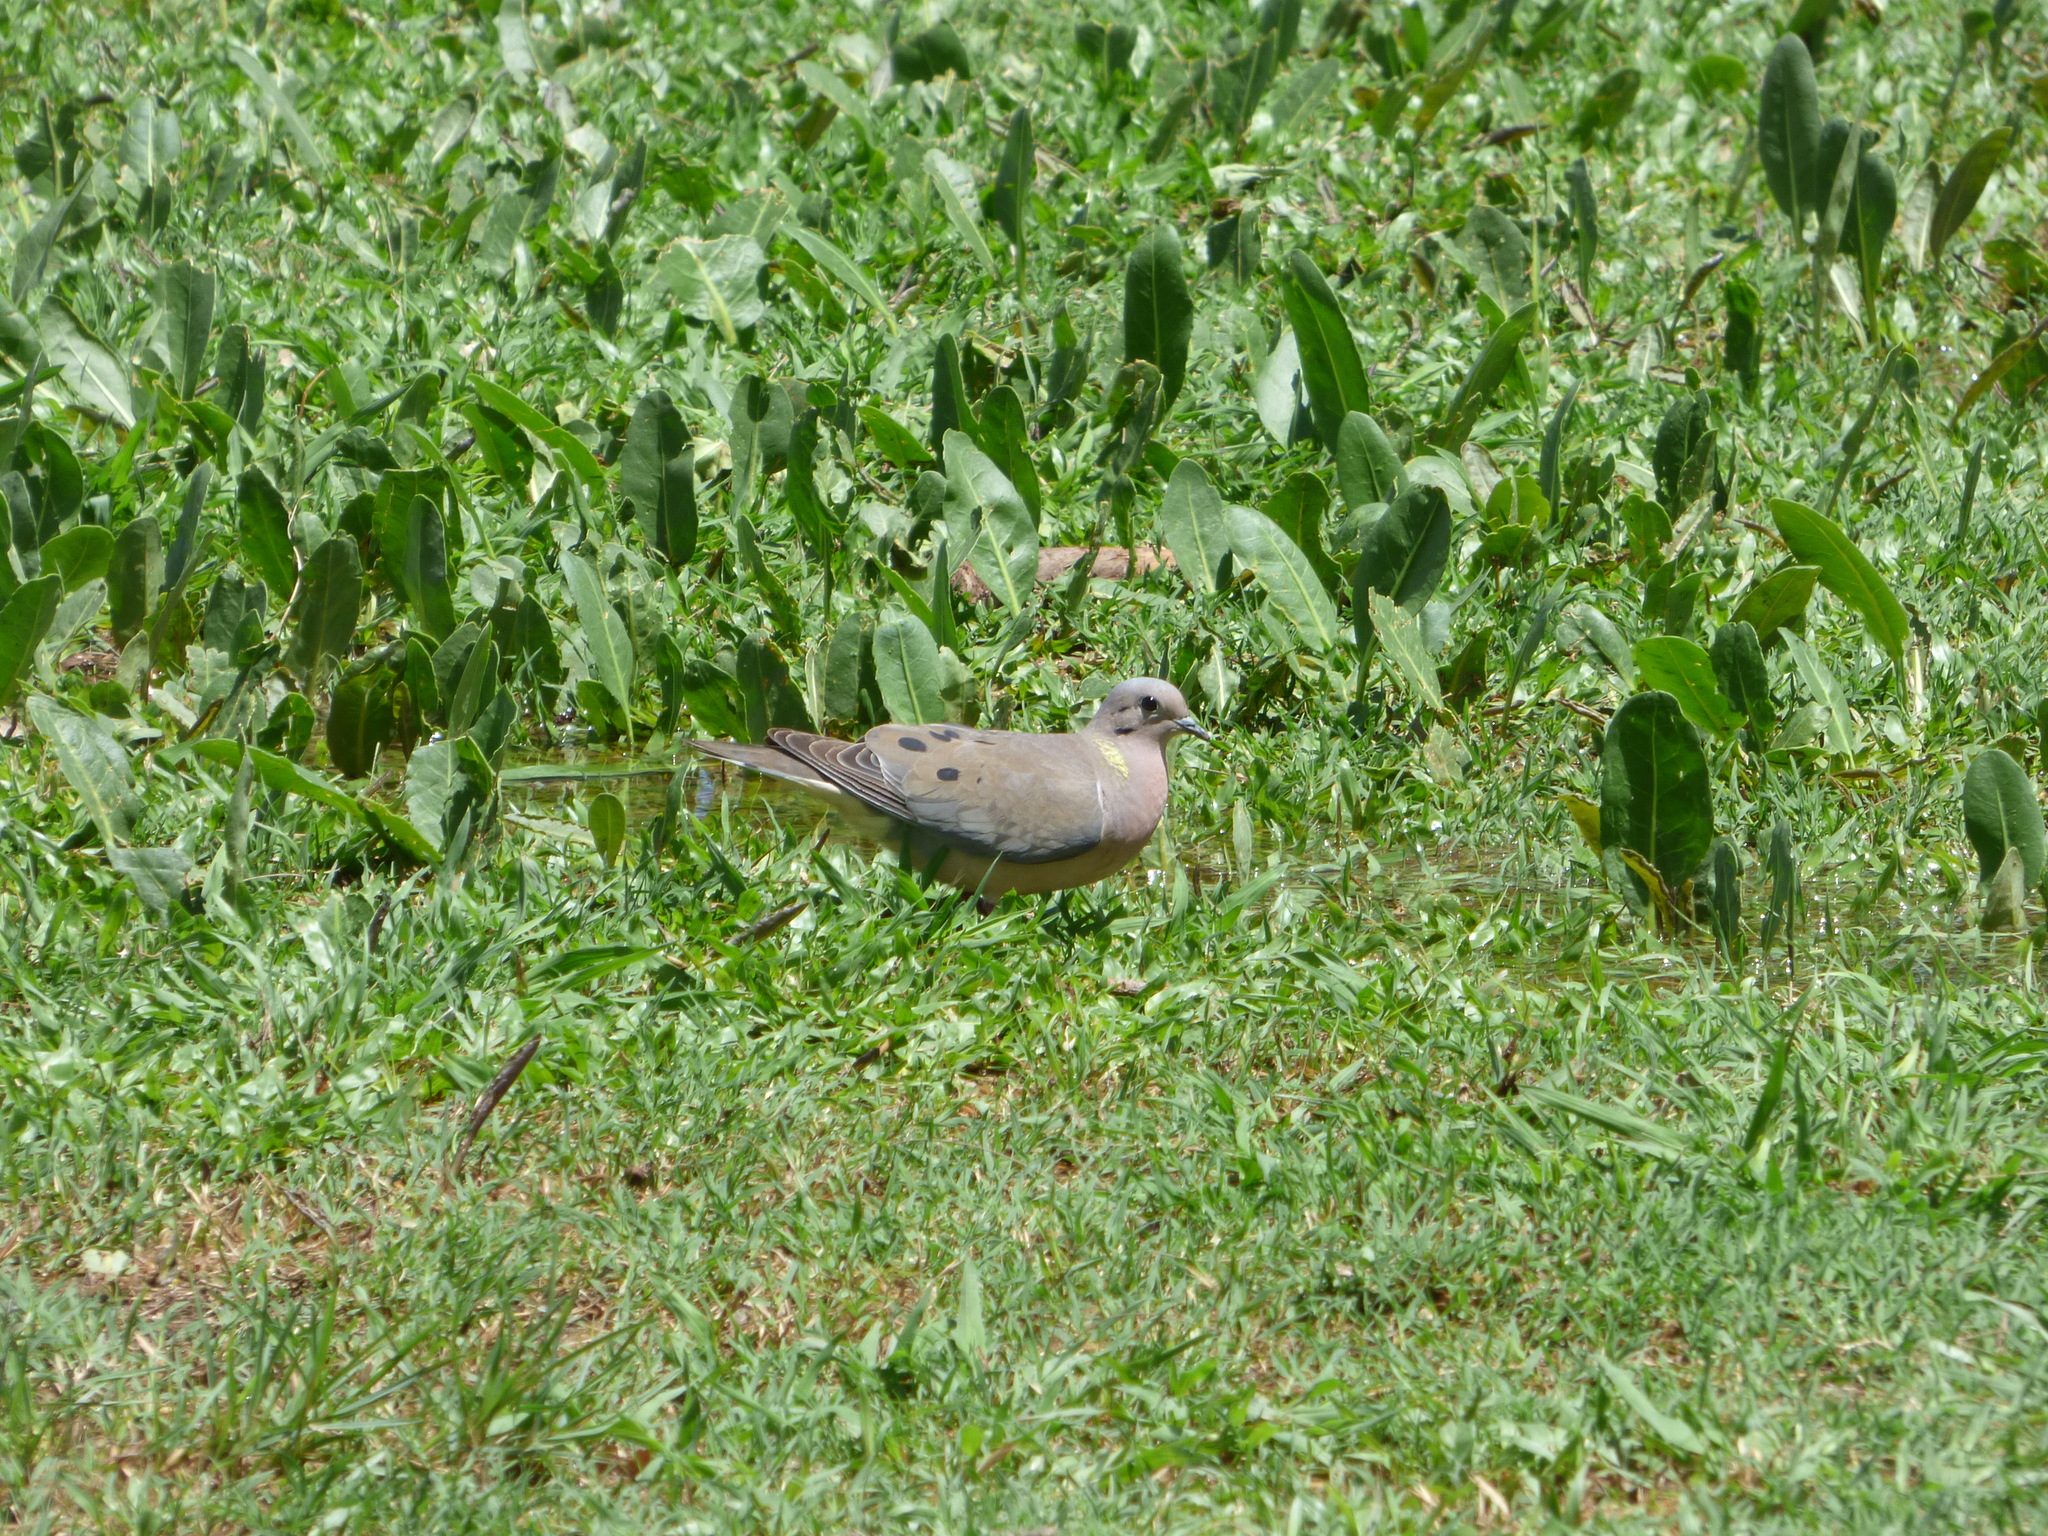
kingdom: Animalia
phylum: Chordata
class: Aves
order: Columbiformes
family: Columbidae
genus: Zenaida
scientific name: Zenaida auriculata
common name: Eared dove
